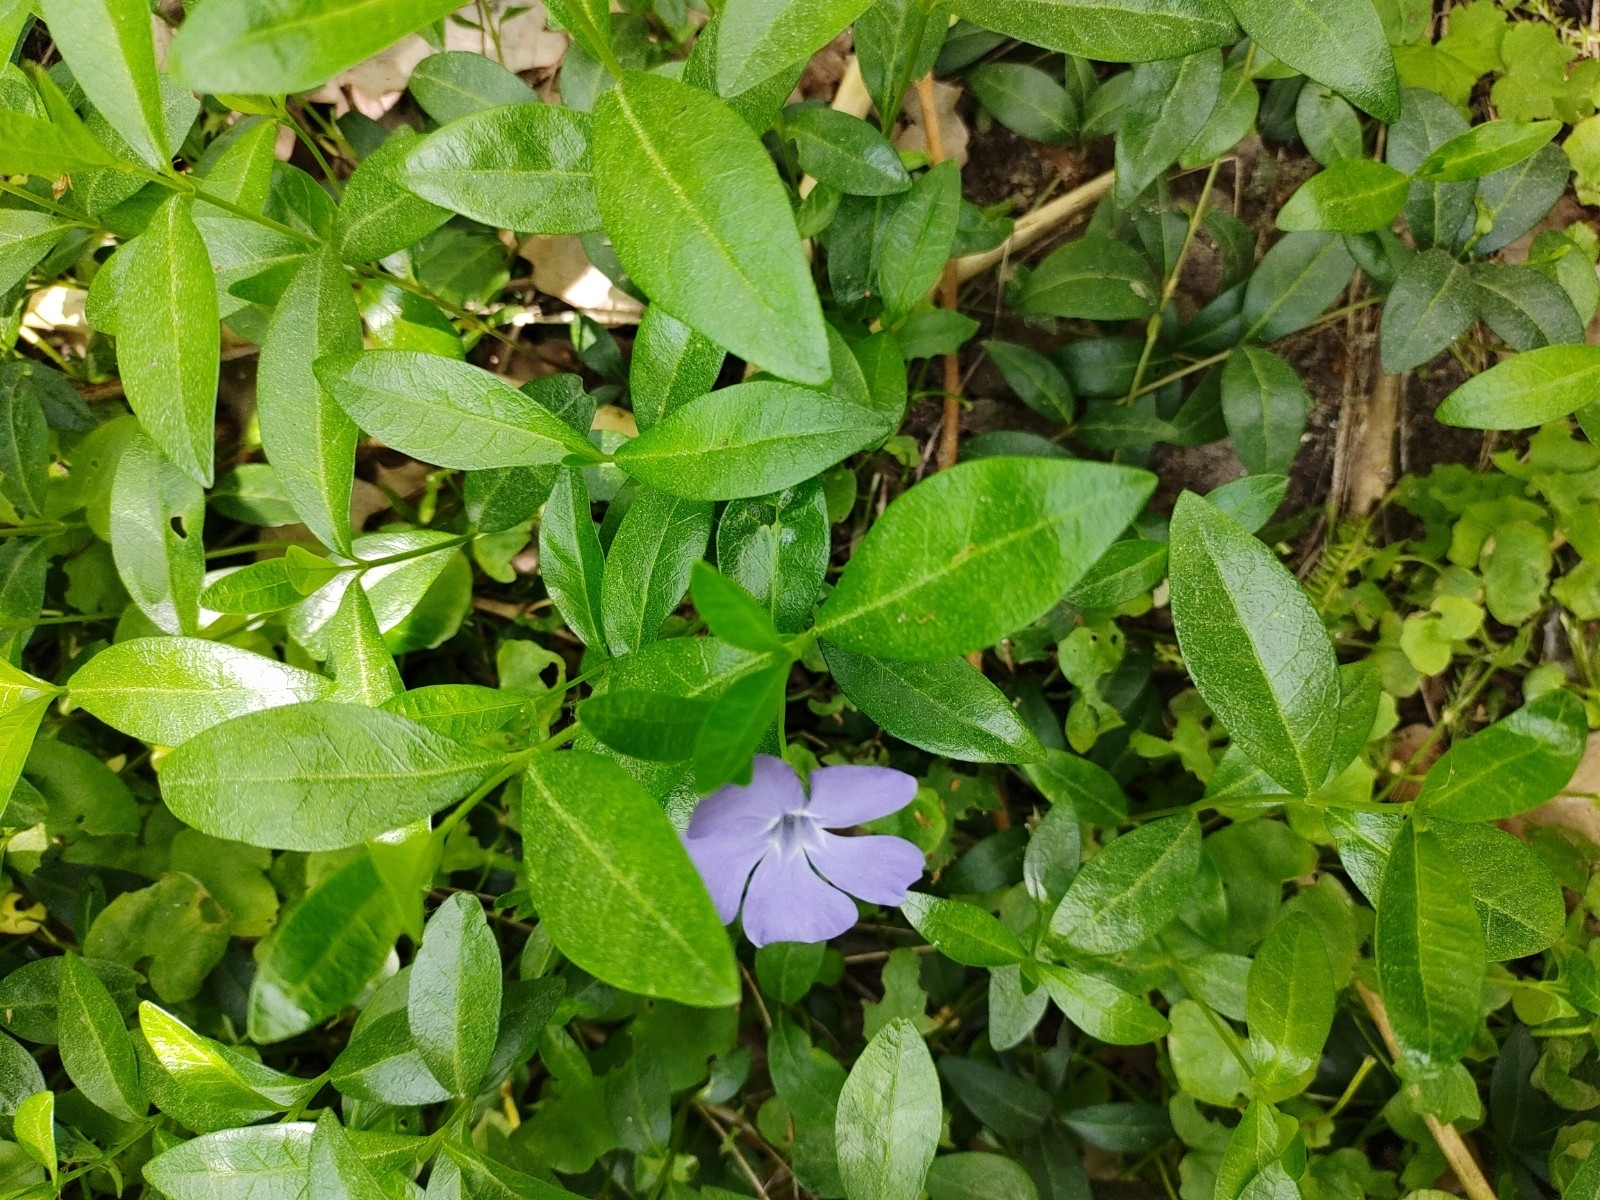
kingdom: Plantae
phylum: Tracheophyta
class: Magnoliopsida
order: Gentianales
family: Apocynaceae
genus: Vinca
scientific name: Vinca minor
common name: Lesser periwinkle
